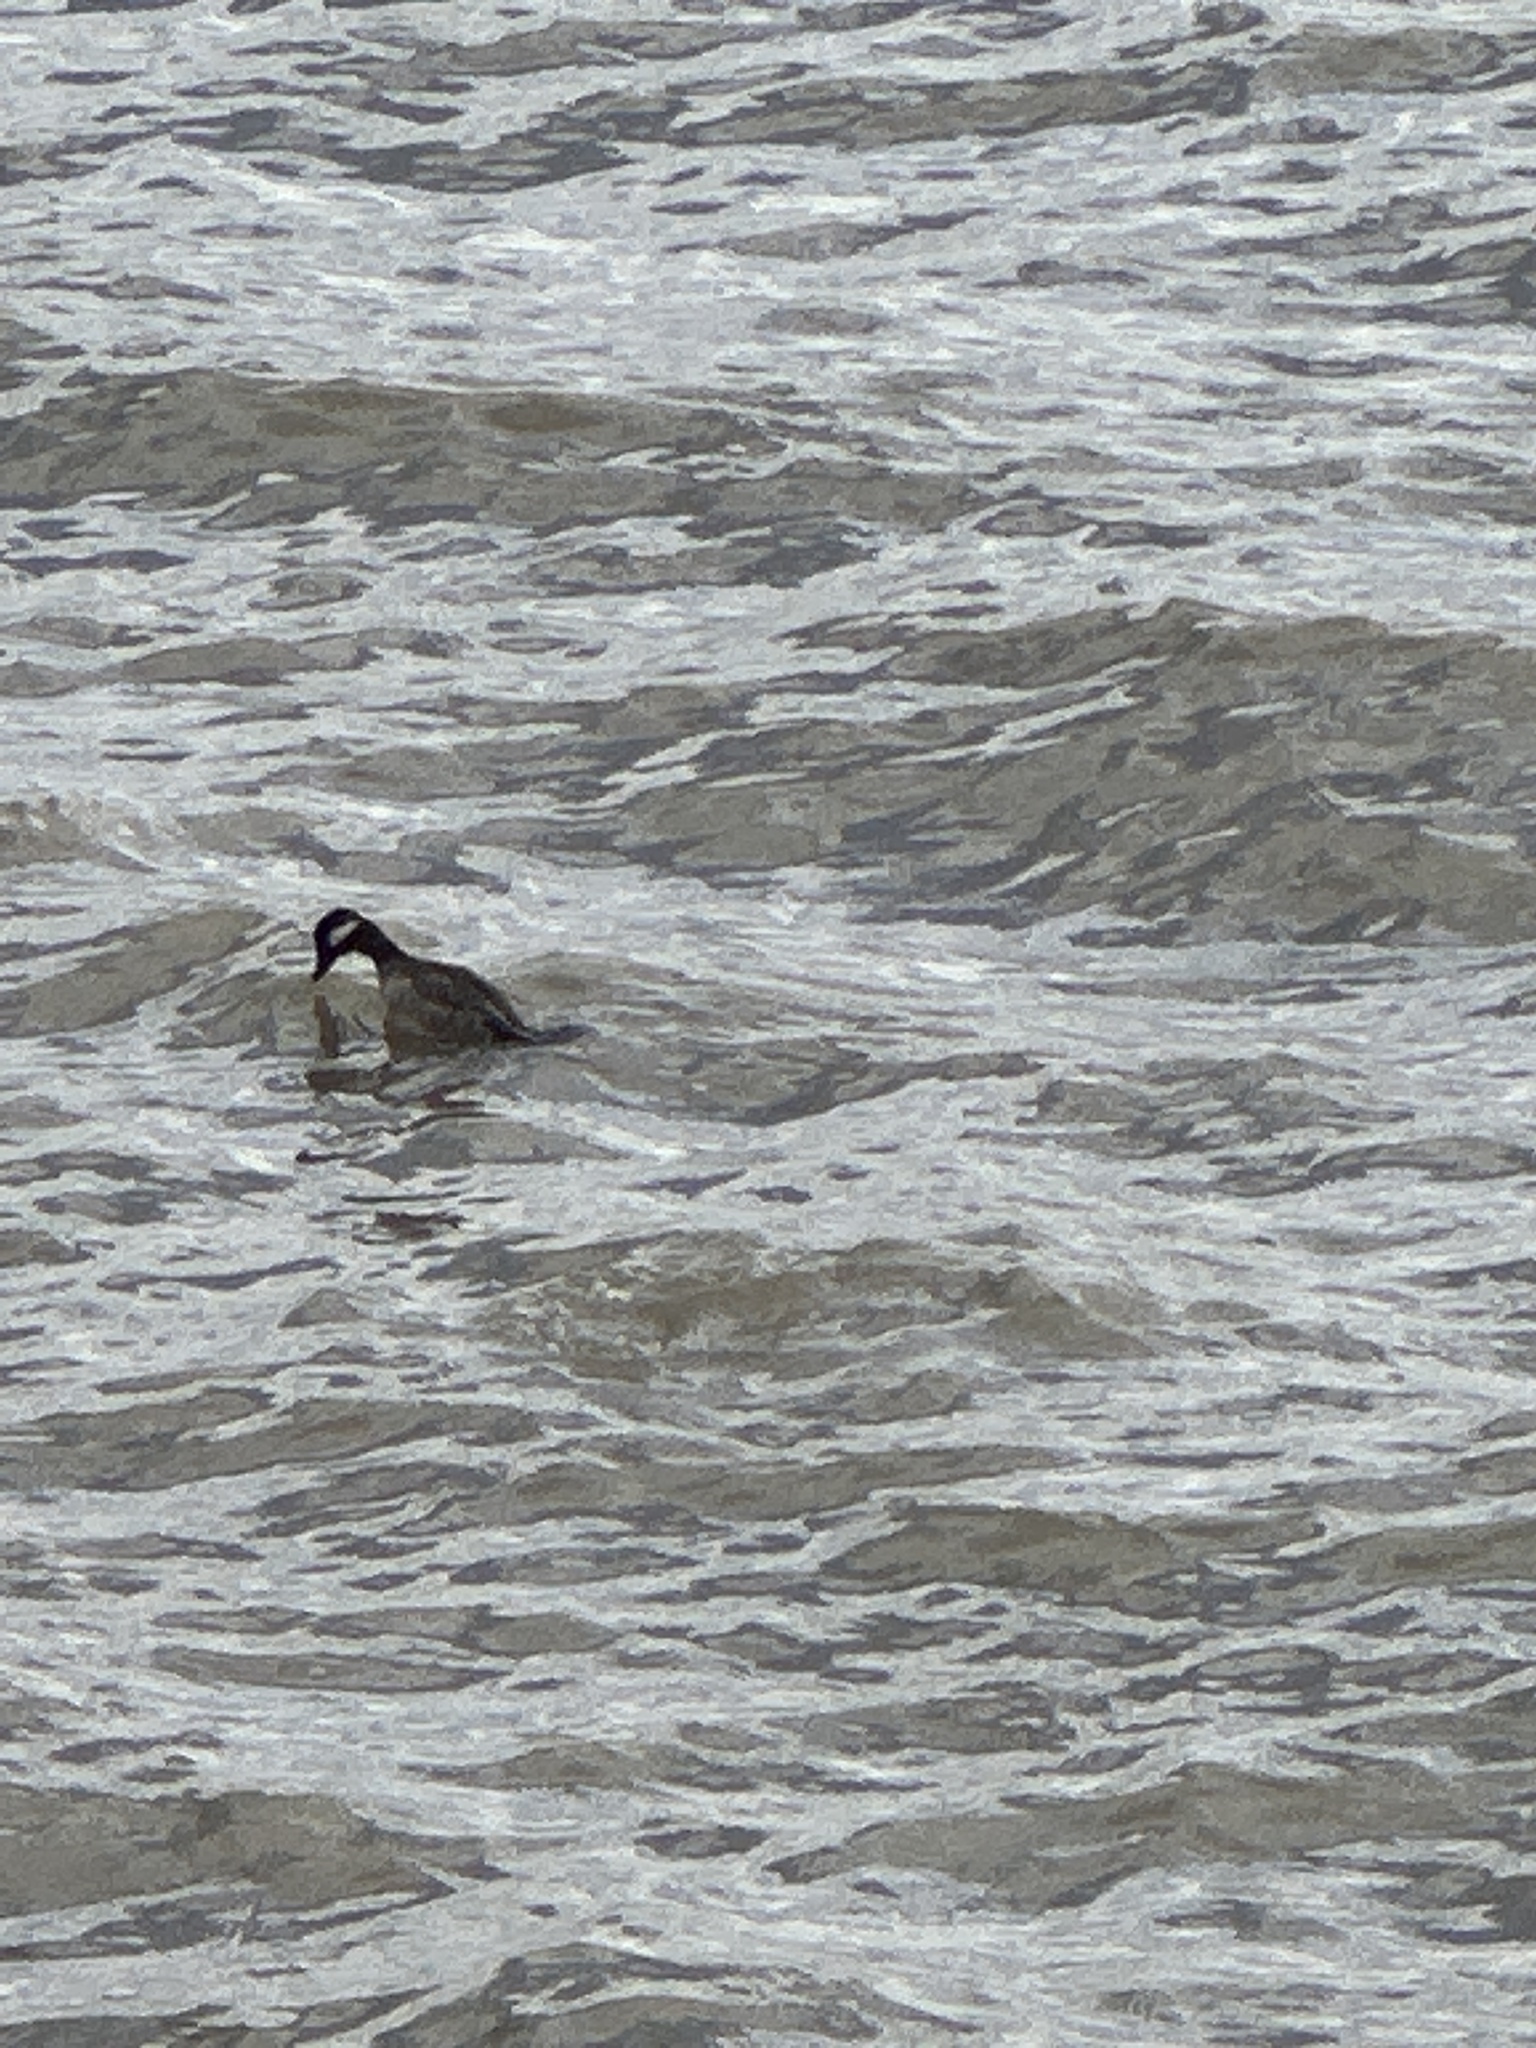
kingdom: Animalia
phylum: Chordata
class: Aves
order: Anseriformes
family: Anatidae
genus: Bucephala
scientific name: Bucephala albeola
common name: Bufflehead
